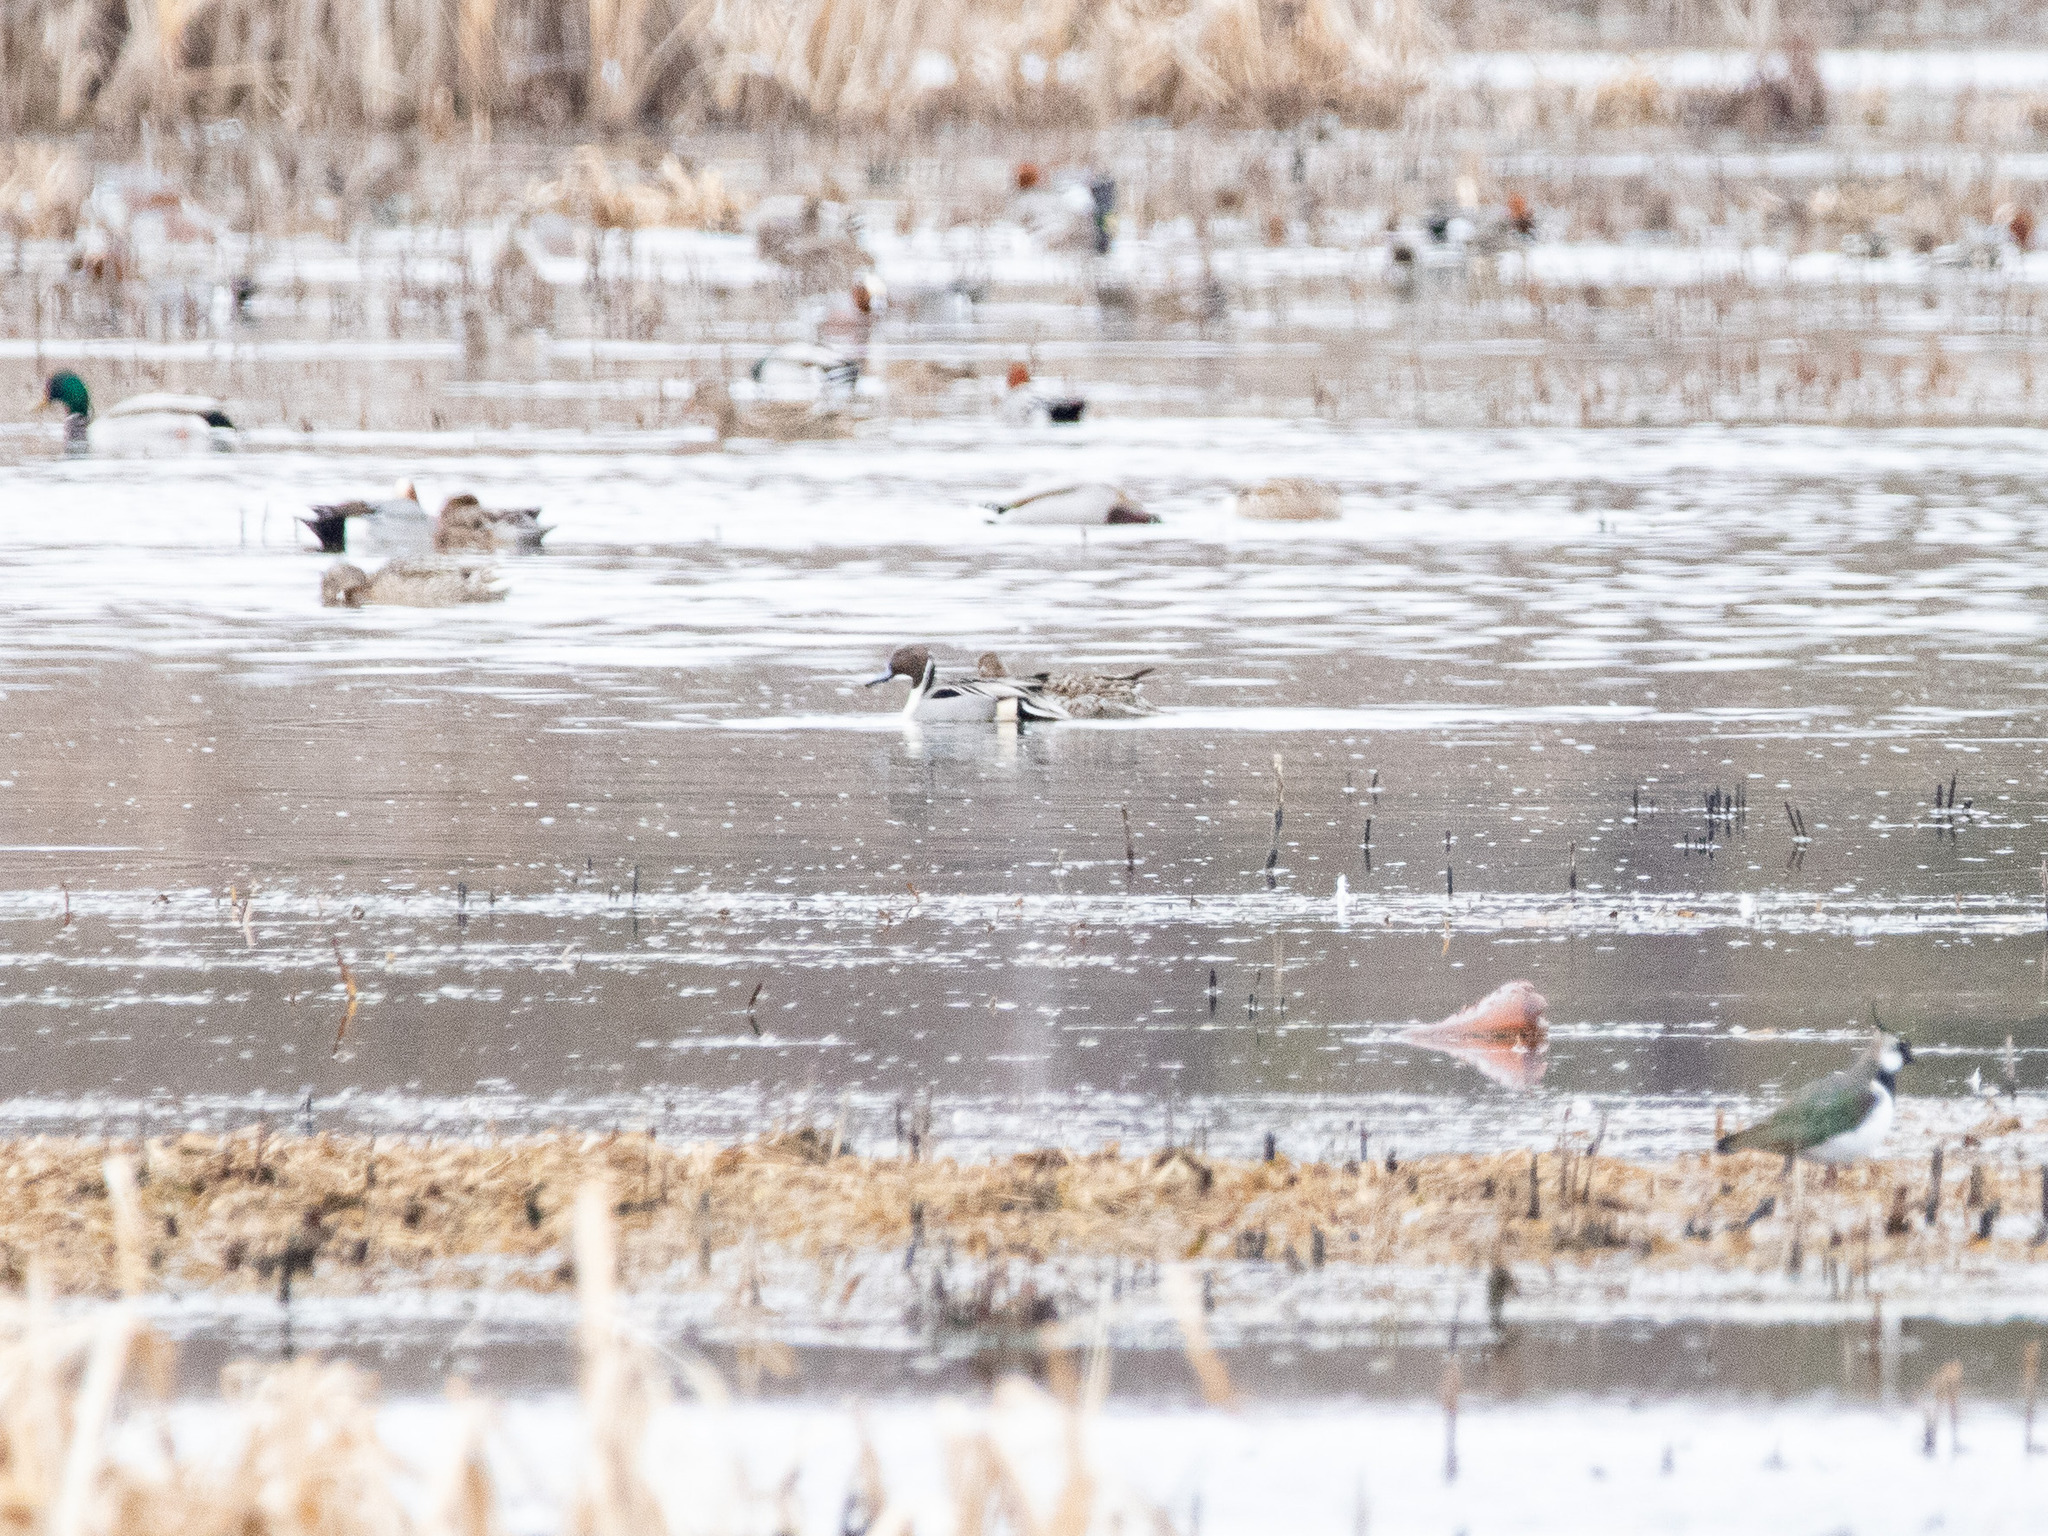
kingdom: Animalia
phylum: Chordata
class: Aves
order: Anseriformes
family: Anatidae
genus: Anas
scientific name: Anas acuta
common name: Northern pintail
